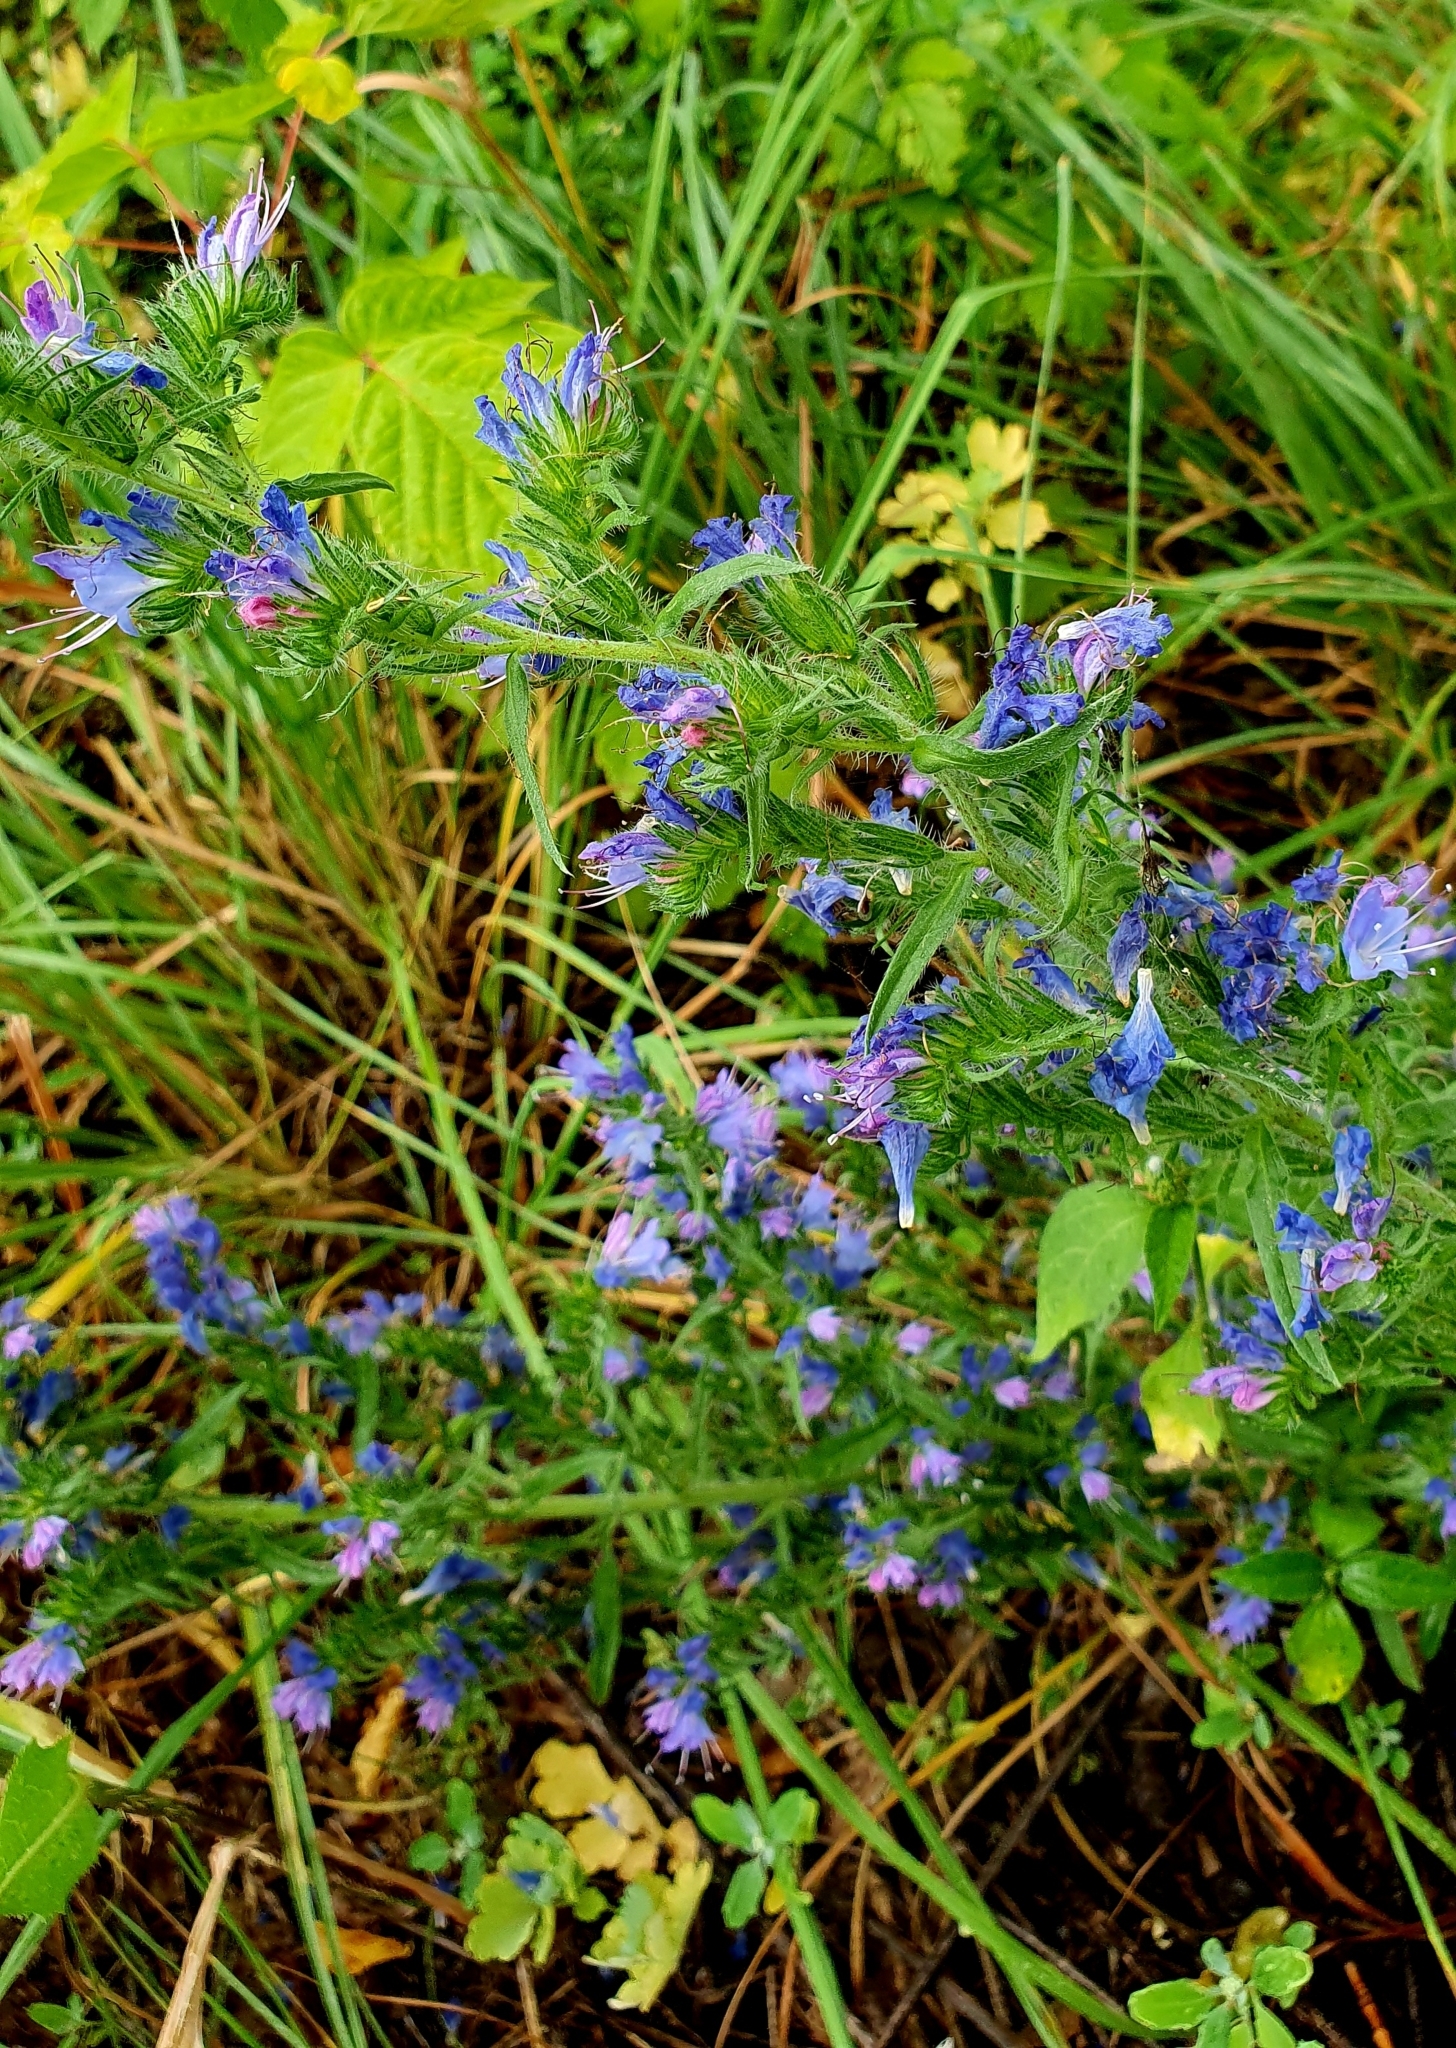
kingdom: Plantae
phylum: Tracheophyta
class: Magnoliopsida
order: Boraginales
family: Boraginaceae
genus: Echium
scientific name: Echium vulgare
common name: Common viper's bugloss
